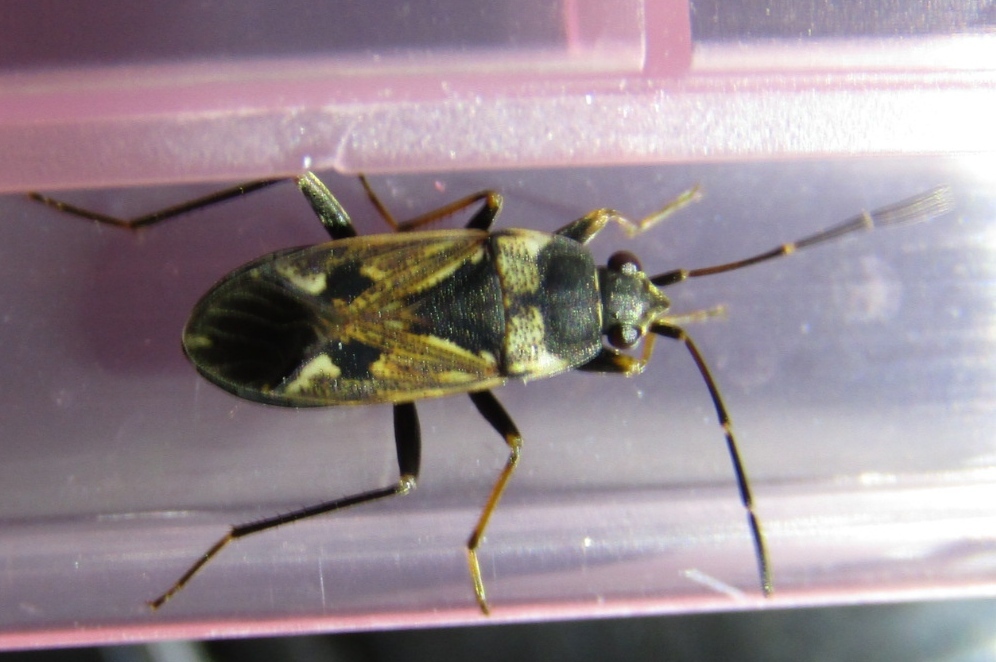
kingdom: Animalia
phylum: Arthropoda
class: Insecta
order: Hemiptera
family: Rhyparochromidae
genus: Rhyparochromus
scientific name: Rhyparochromus vulgaris
